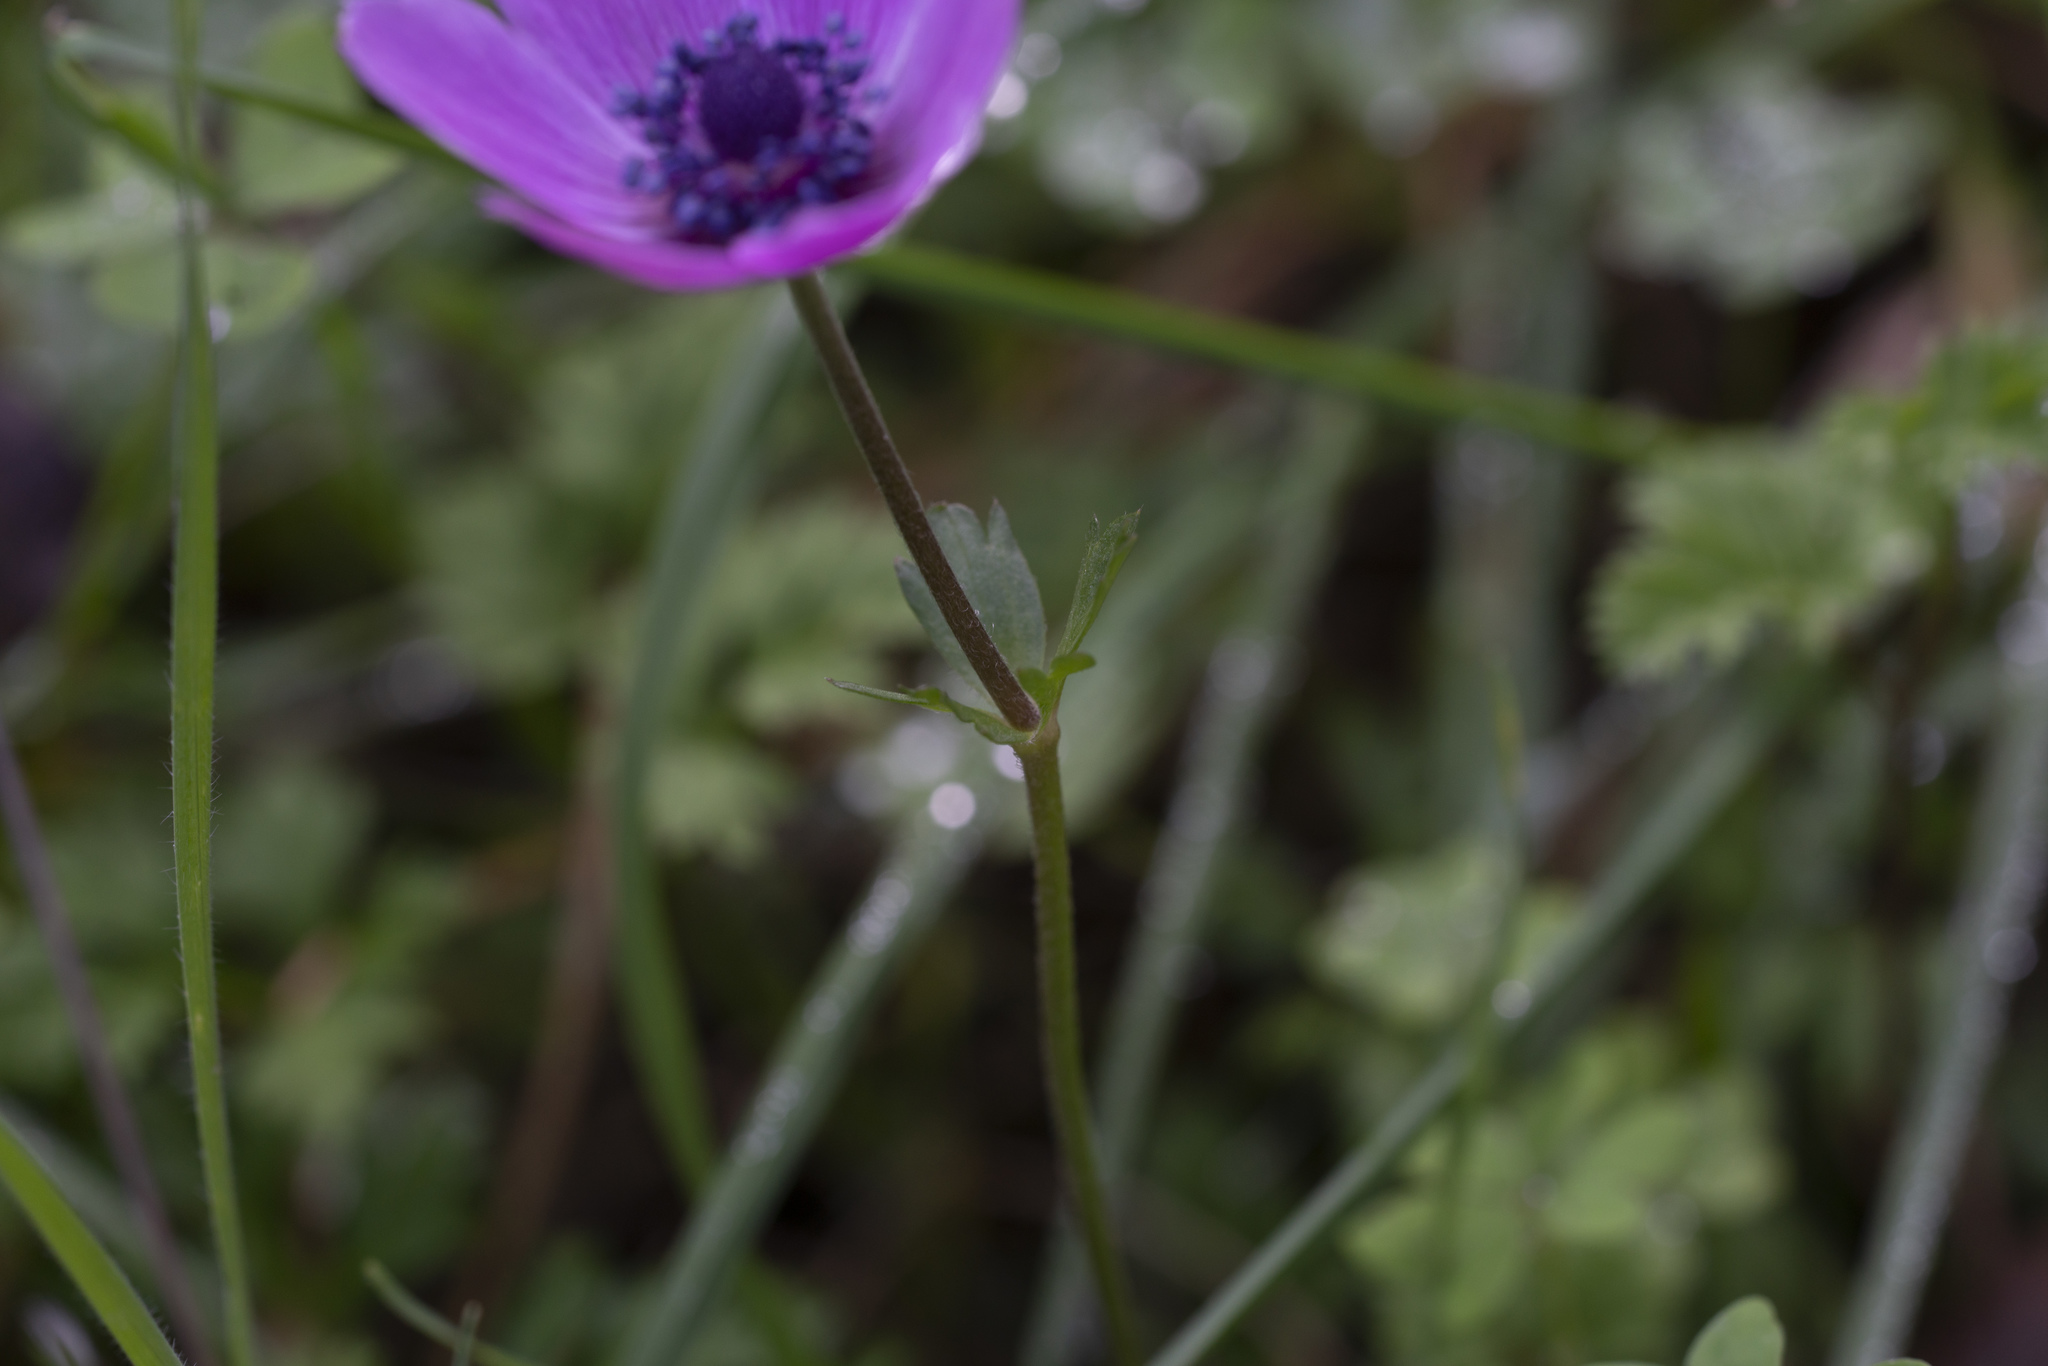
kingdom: Plantae
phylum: Tracheophyta
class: Magnoliopsida
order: Ranunculales
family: Ranunculaceae
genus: Anemone
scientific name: Anemone coronaria
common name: Poppy anemone
